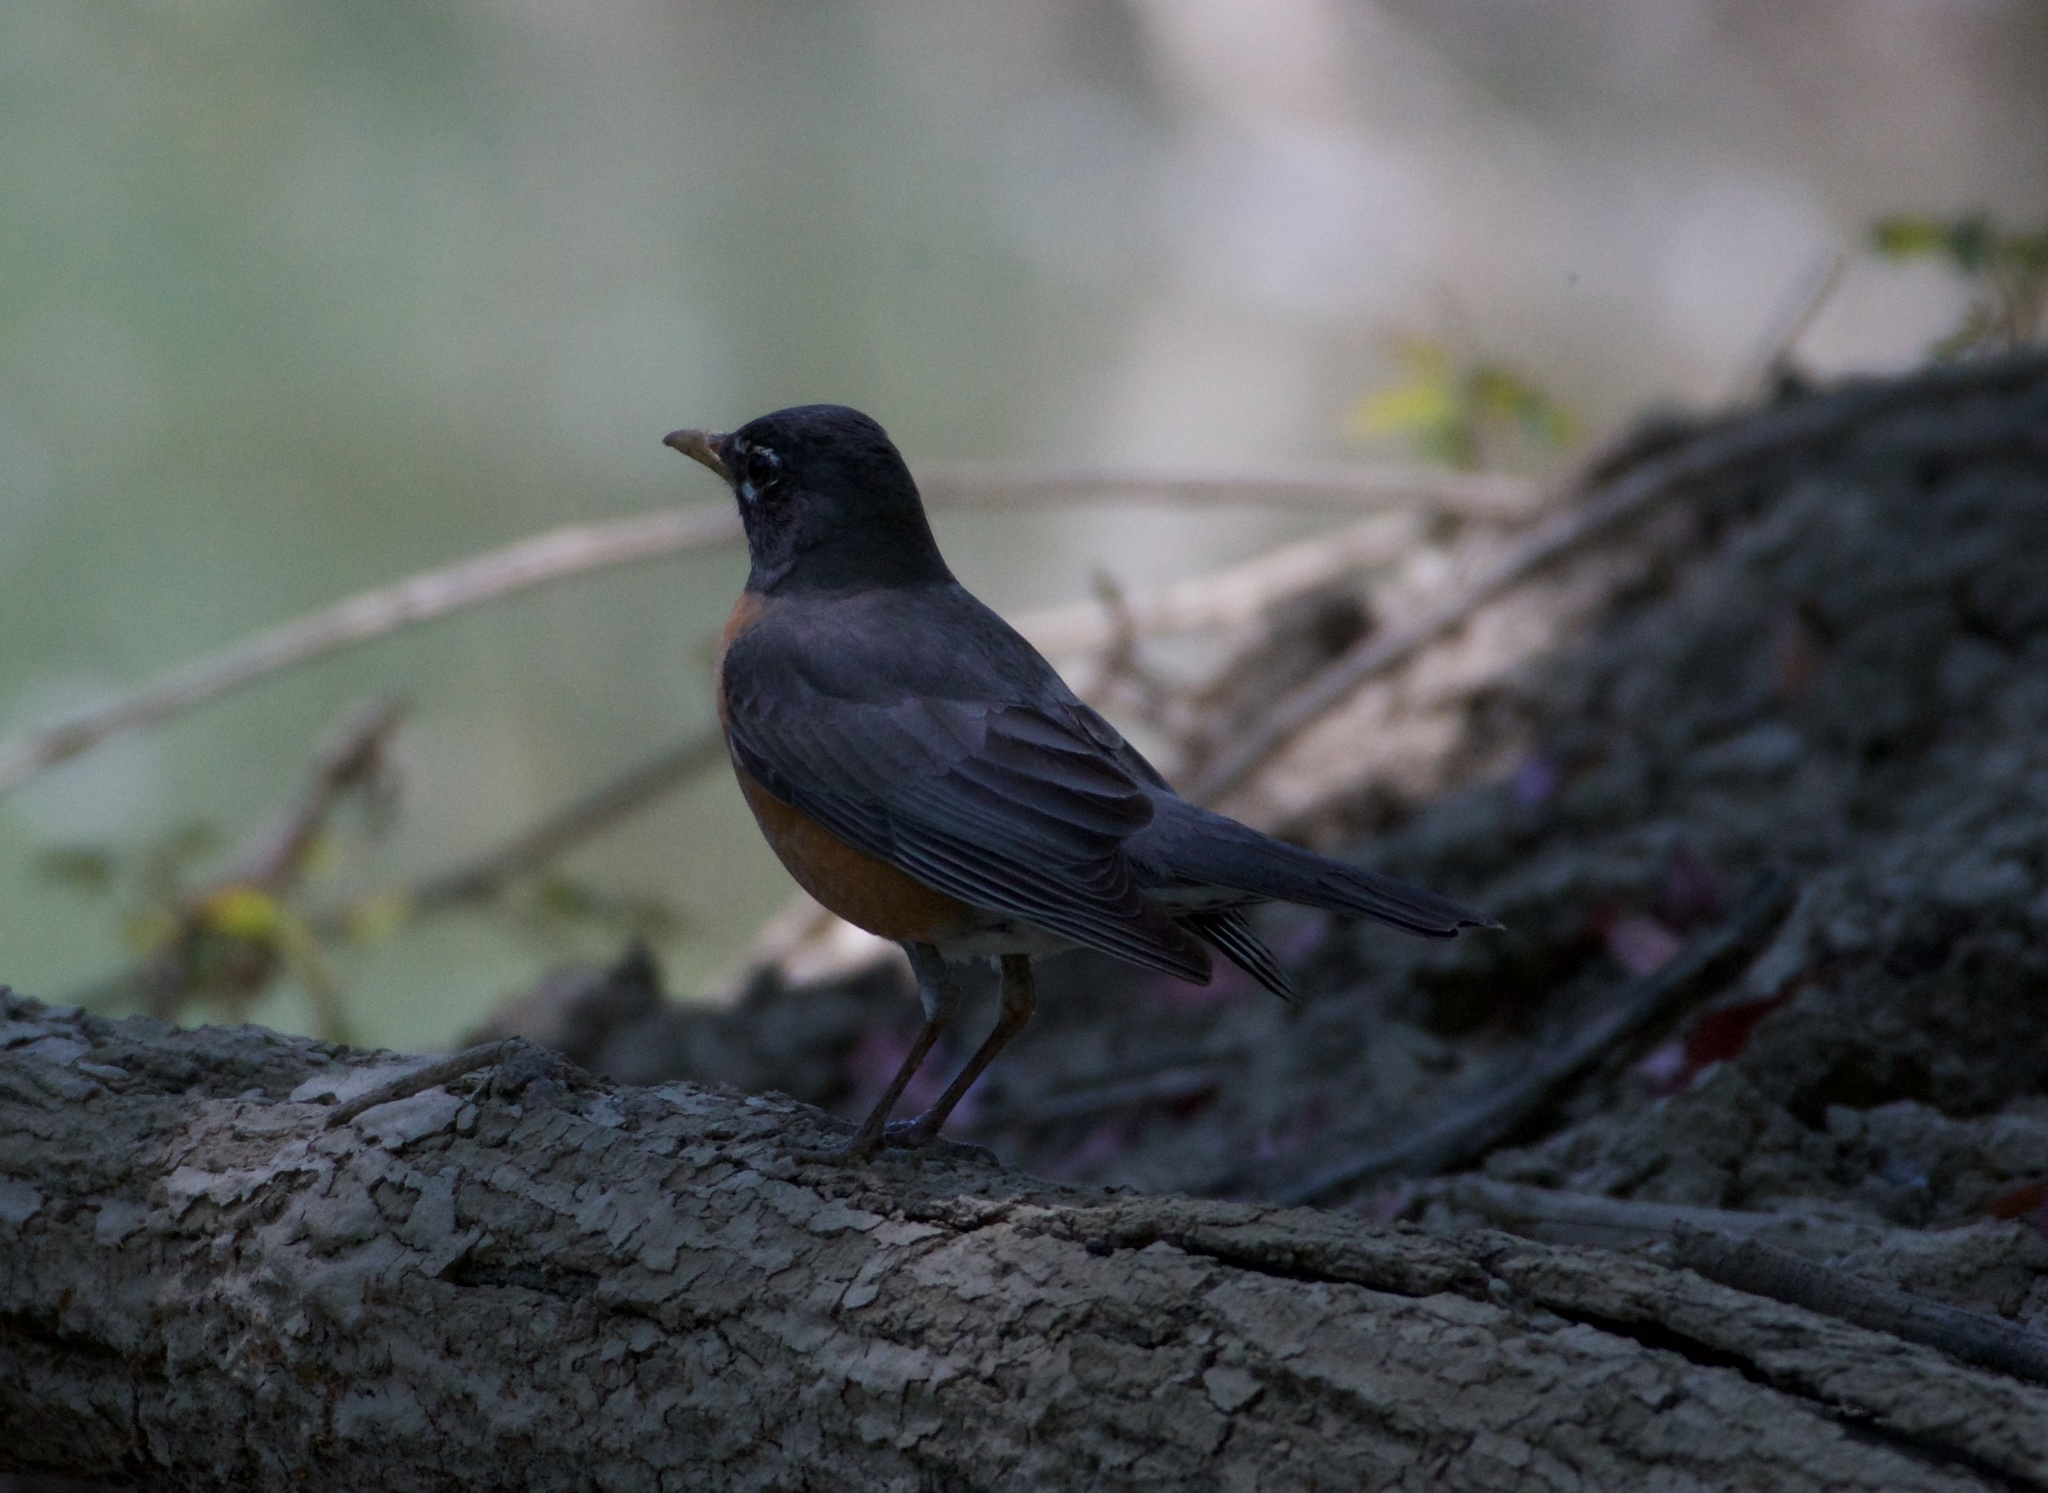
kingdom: Animalia
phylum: Chordata
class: Aves
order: Passeriformes
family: Turdidae
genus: Turdus
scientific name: Turdus migratorius
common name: American robin
